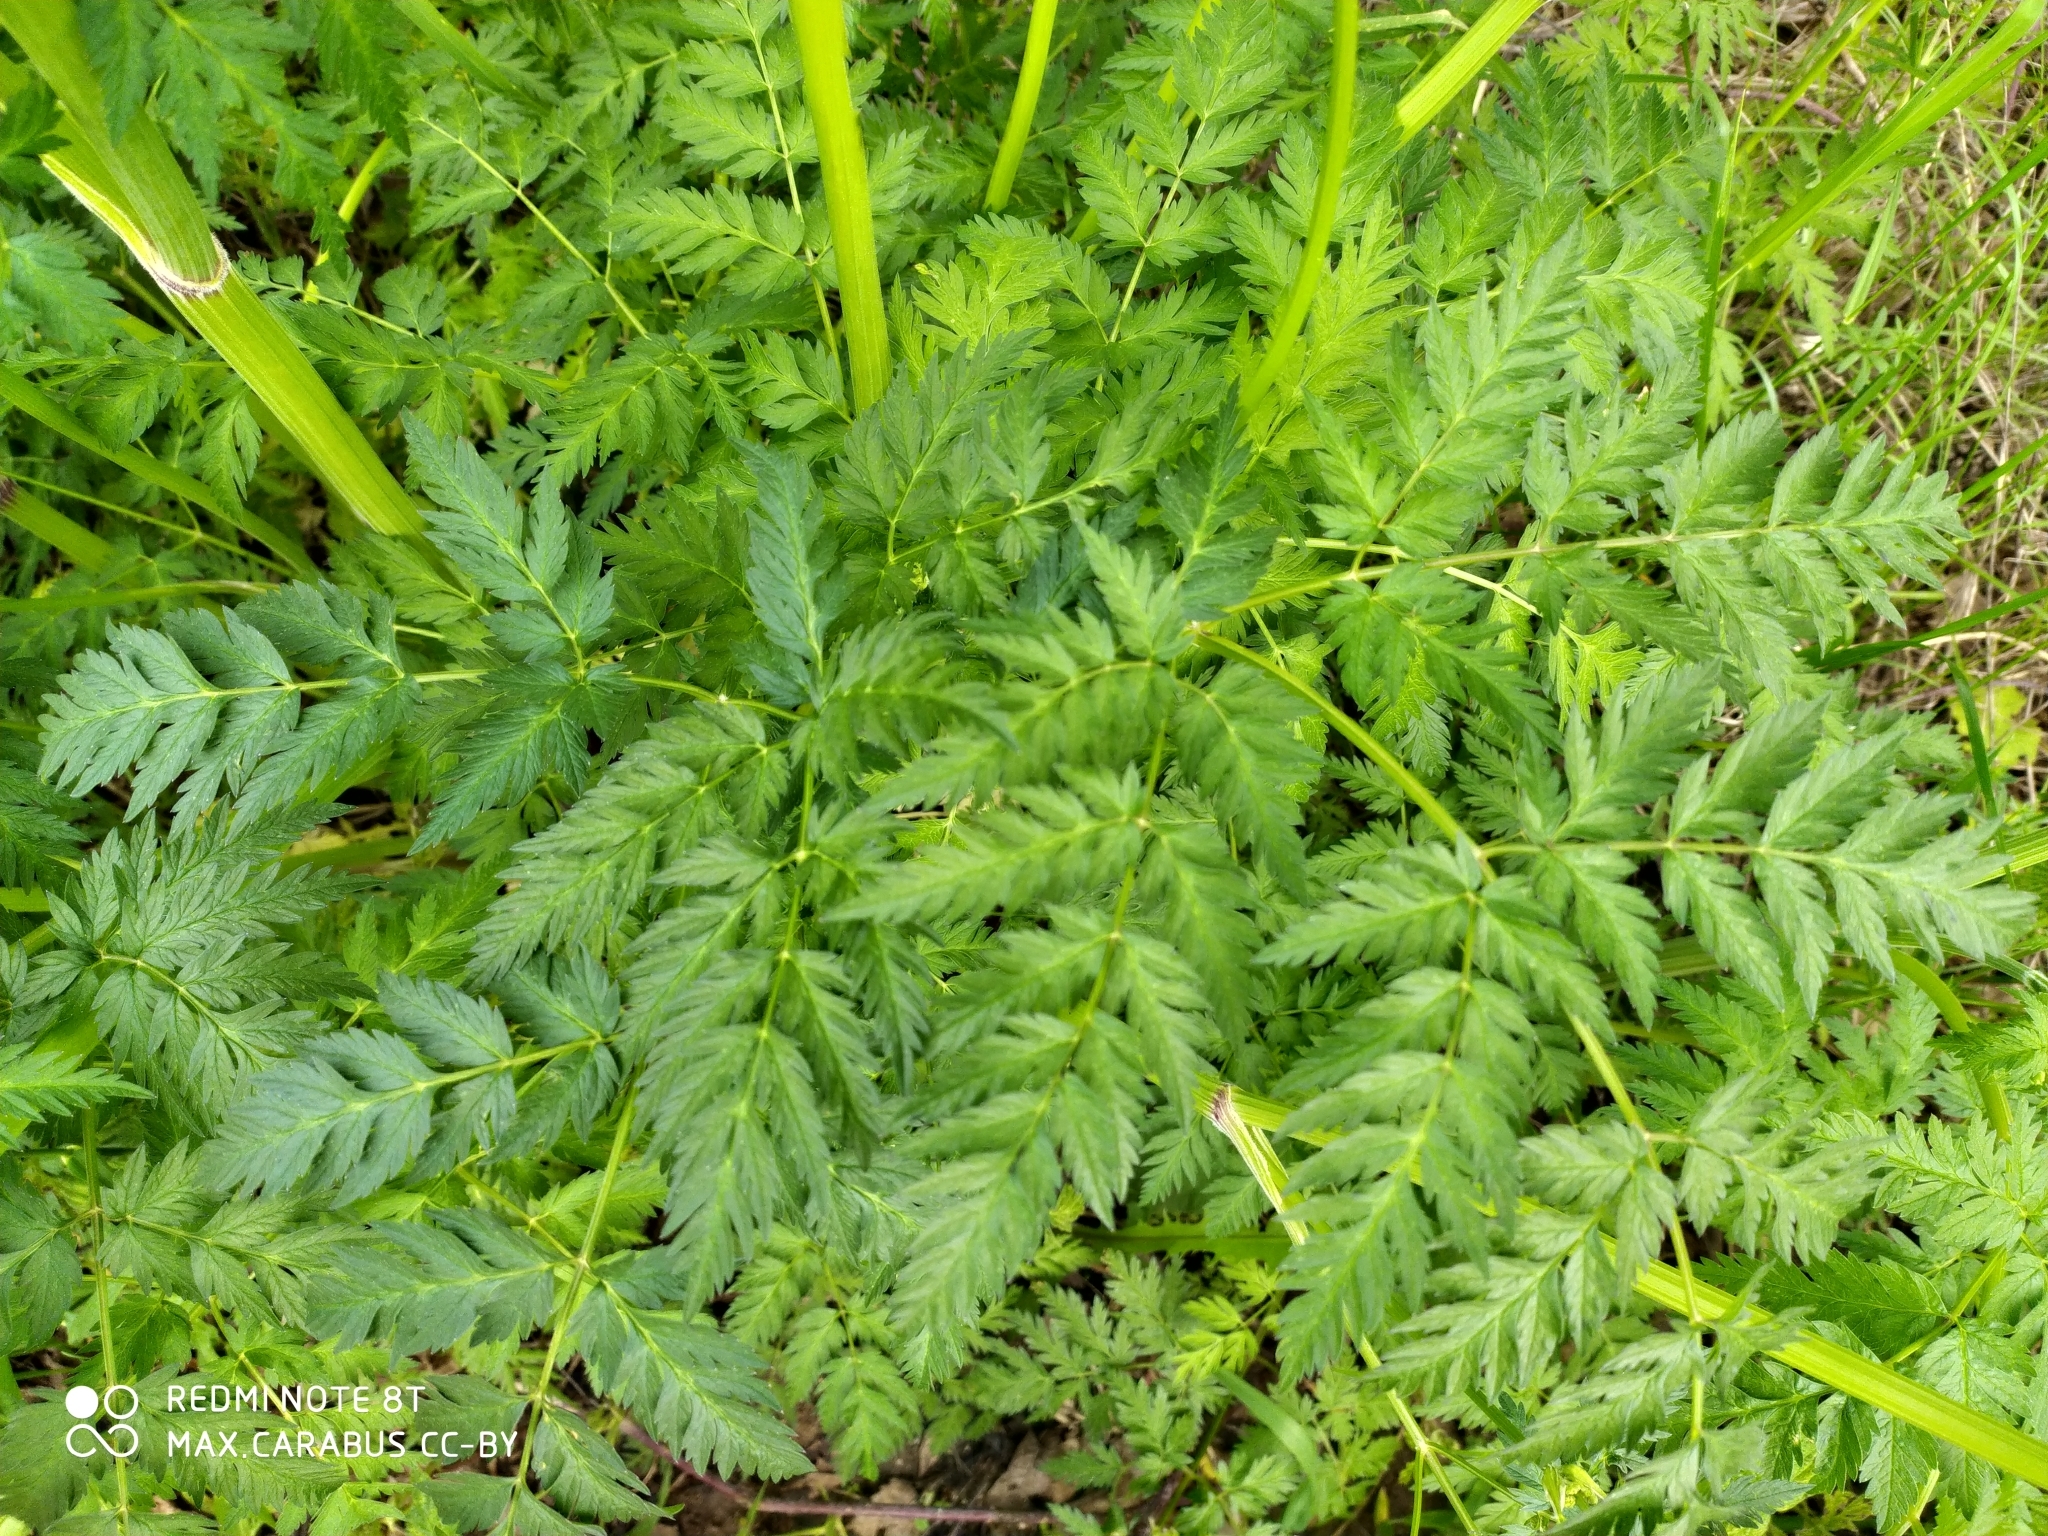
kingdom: Plantae
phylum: Tracheophyta
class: Magnoliopsida
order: Apiales
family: Apiaceae
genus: Anthriscus
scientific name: Anthriscus sylvestris
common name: Cow parsley
